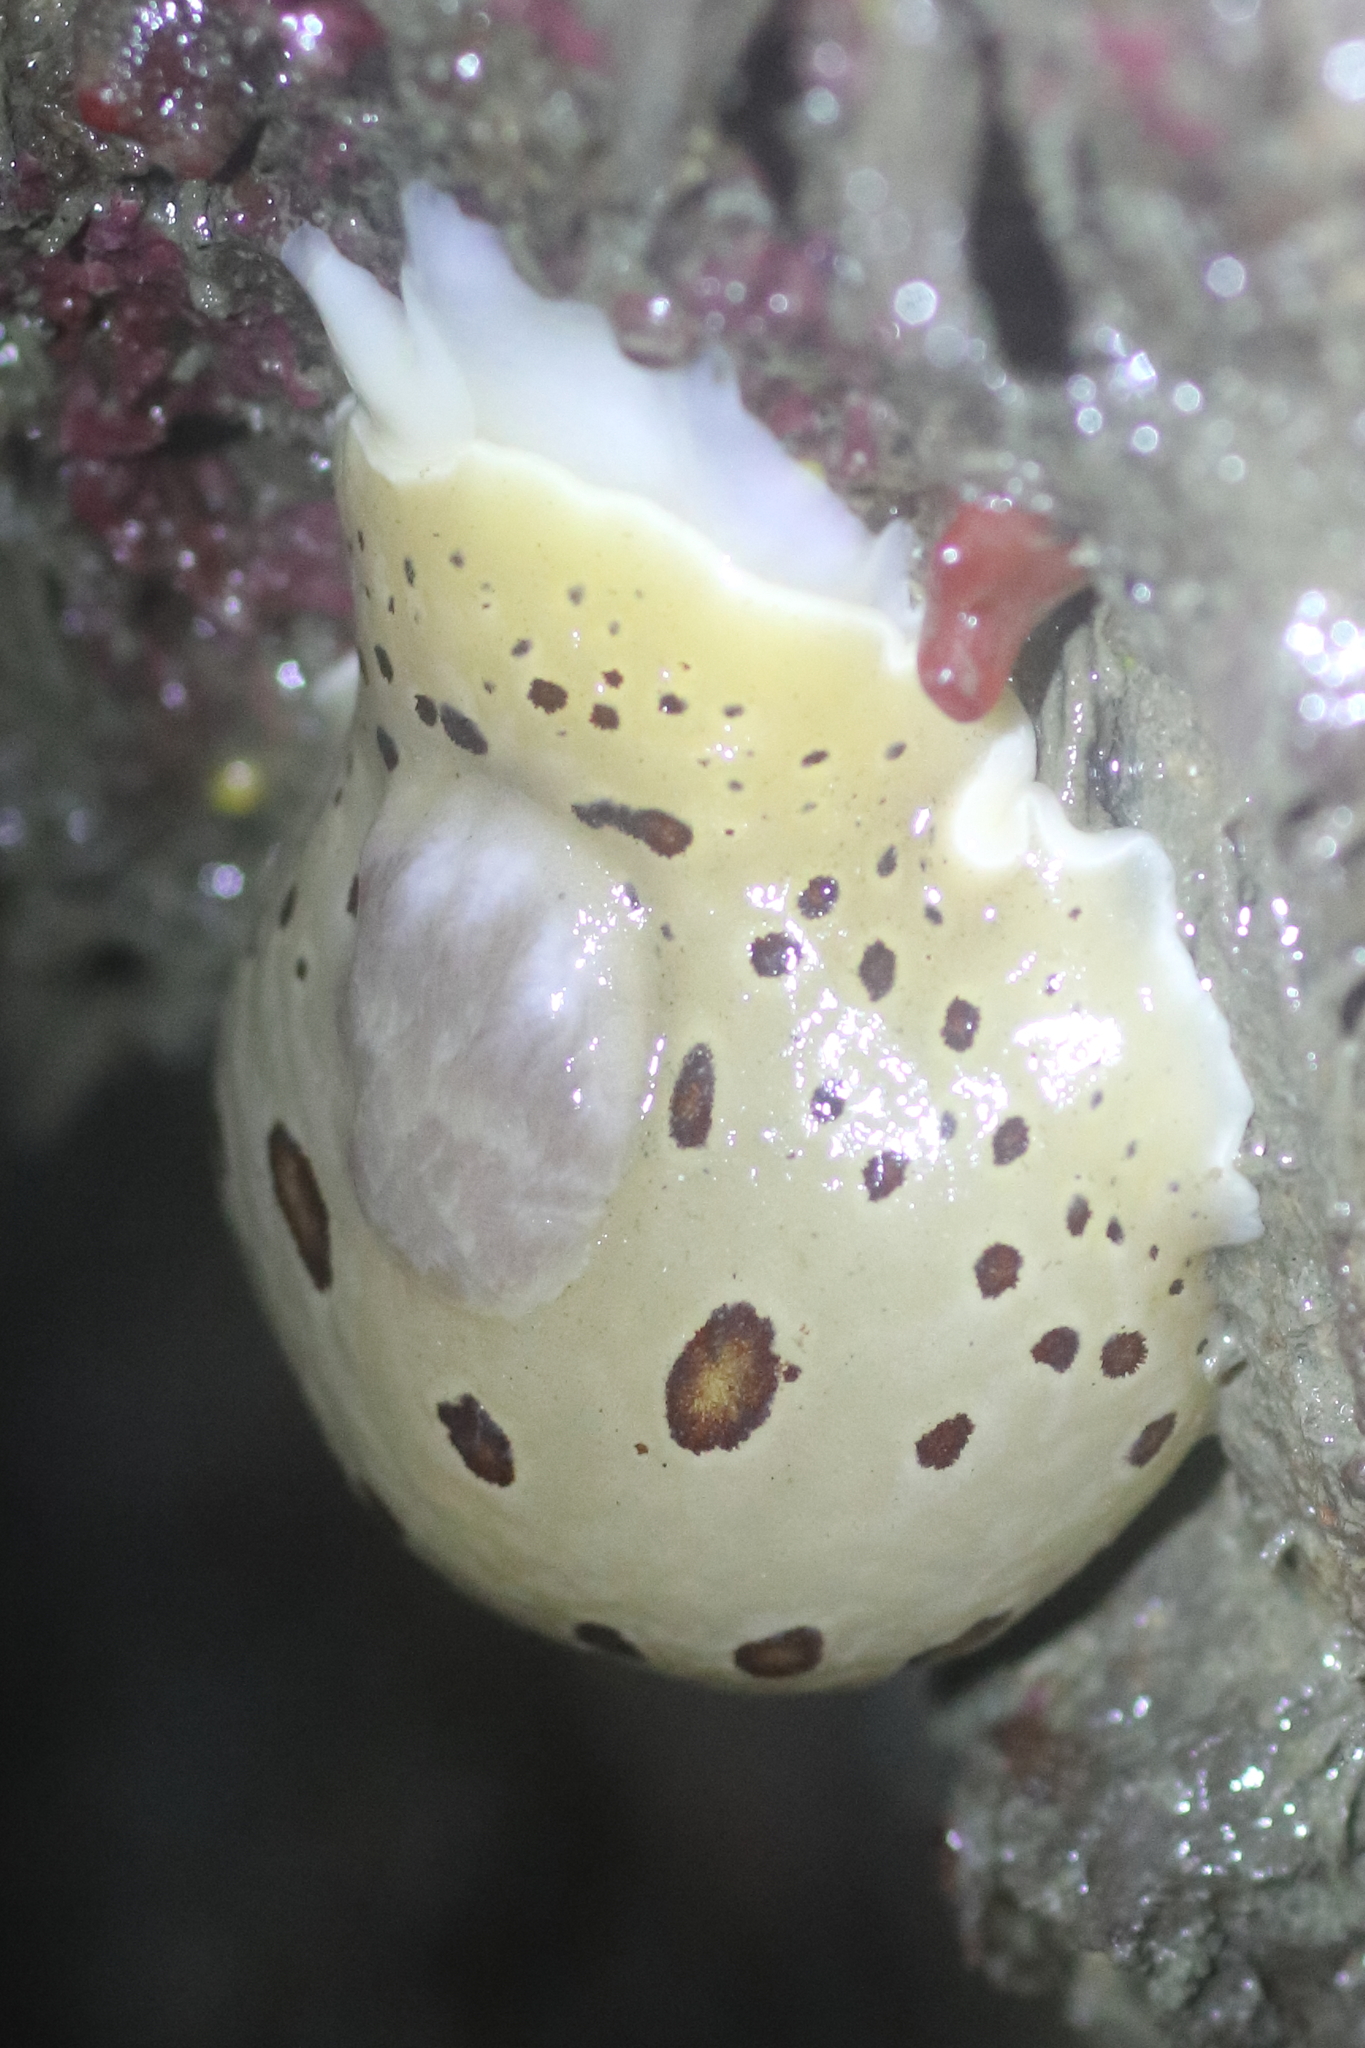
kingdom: Animalia
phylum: Mollusca
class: Gastropoda
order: Nudibranchia
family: Discodorididae
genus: Diaulula
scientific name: Diaulula odonoghuei
